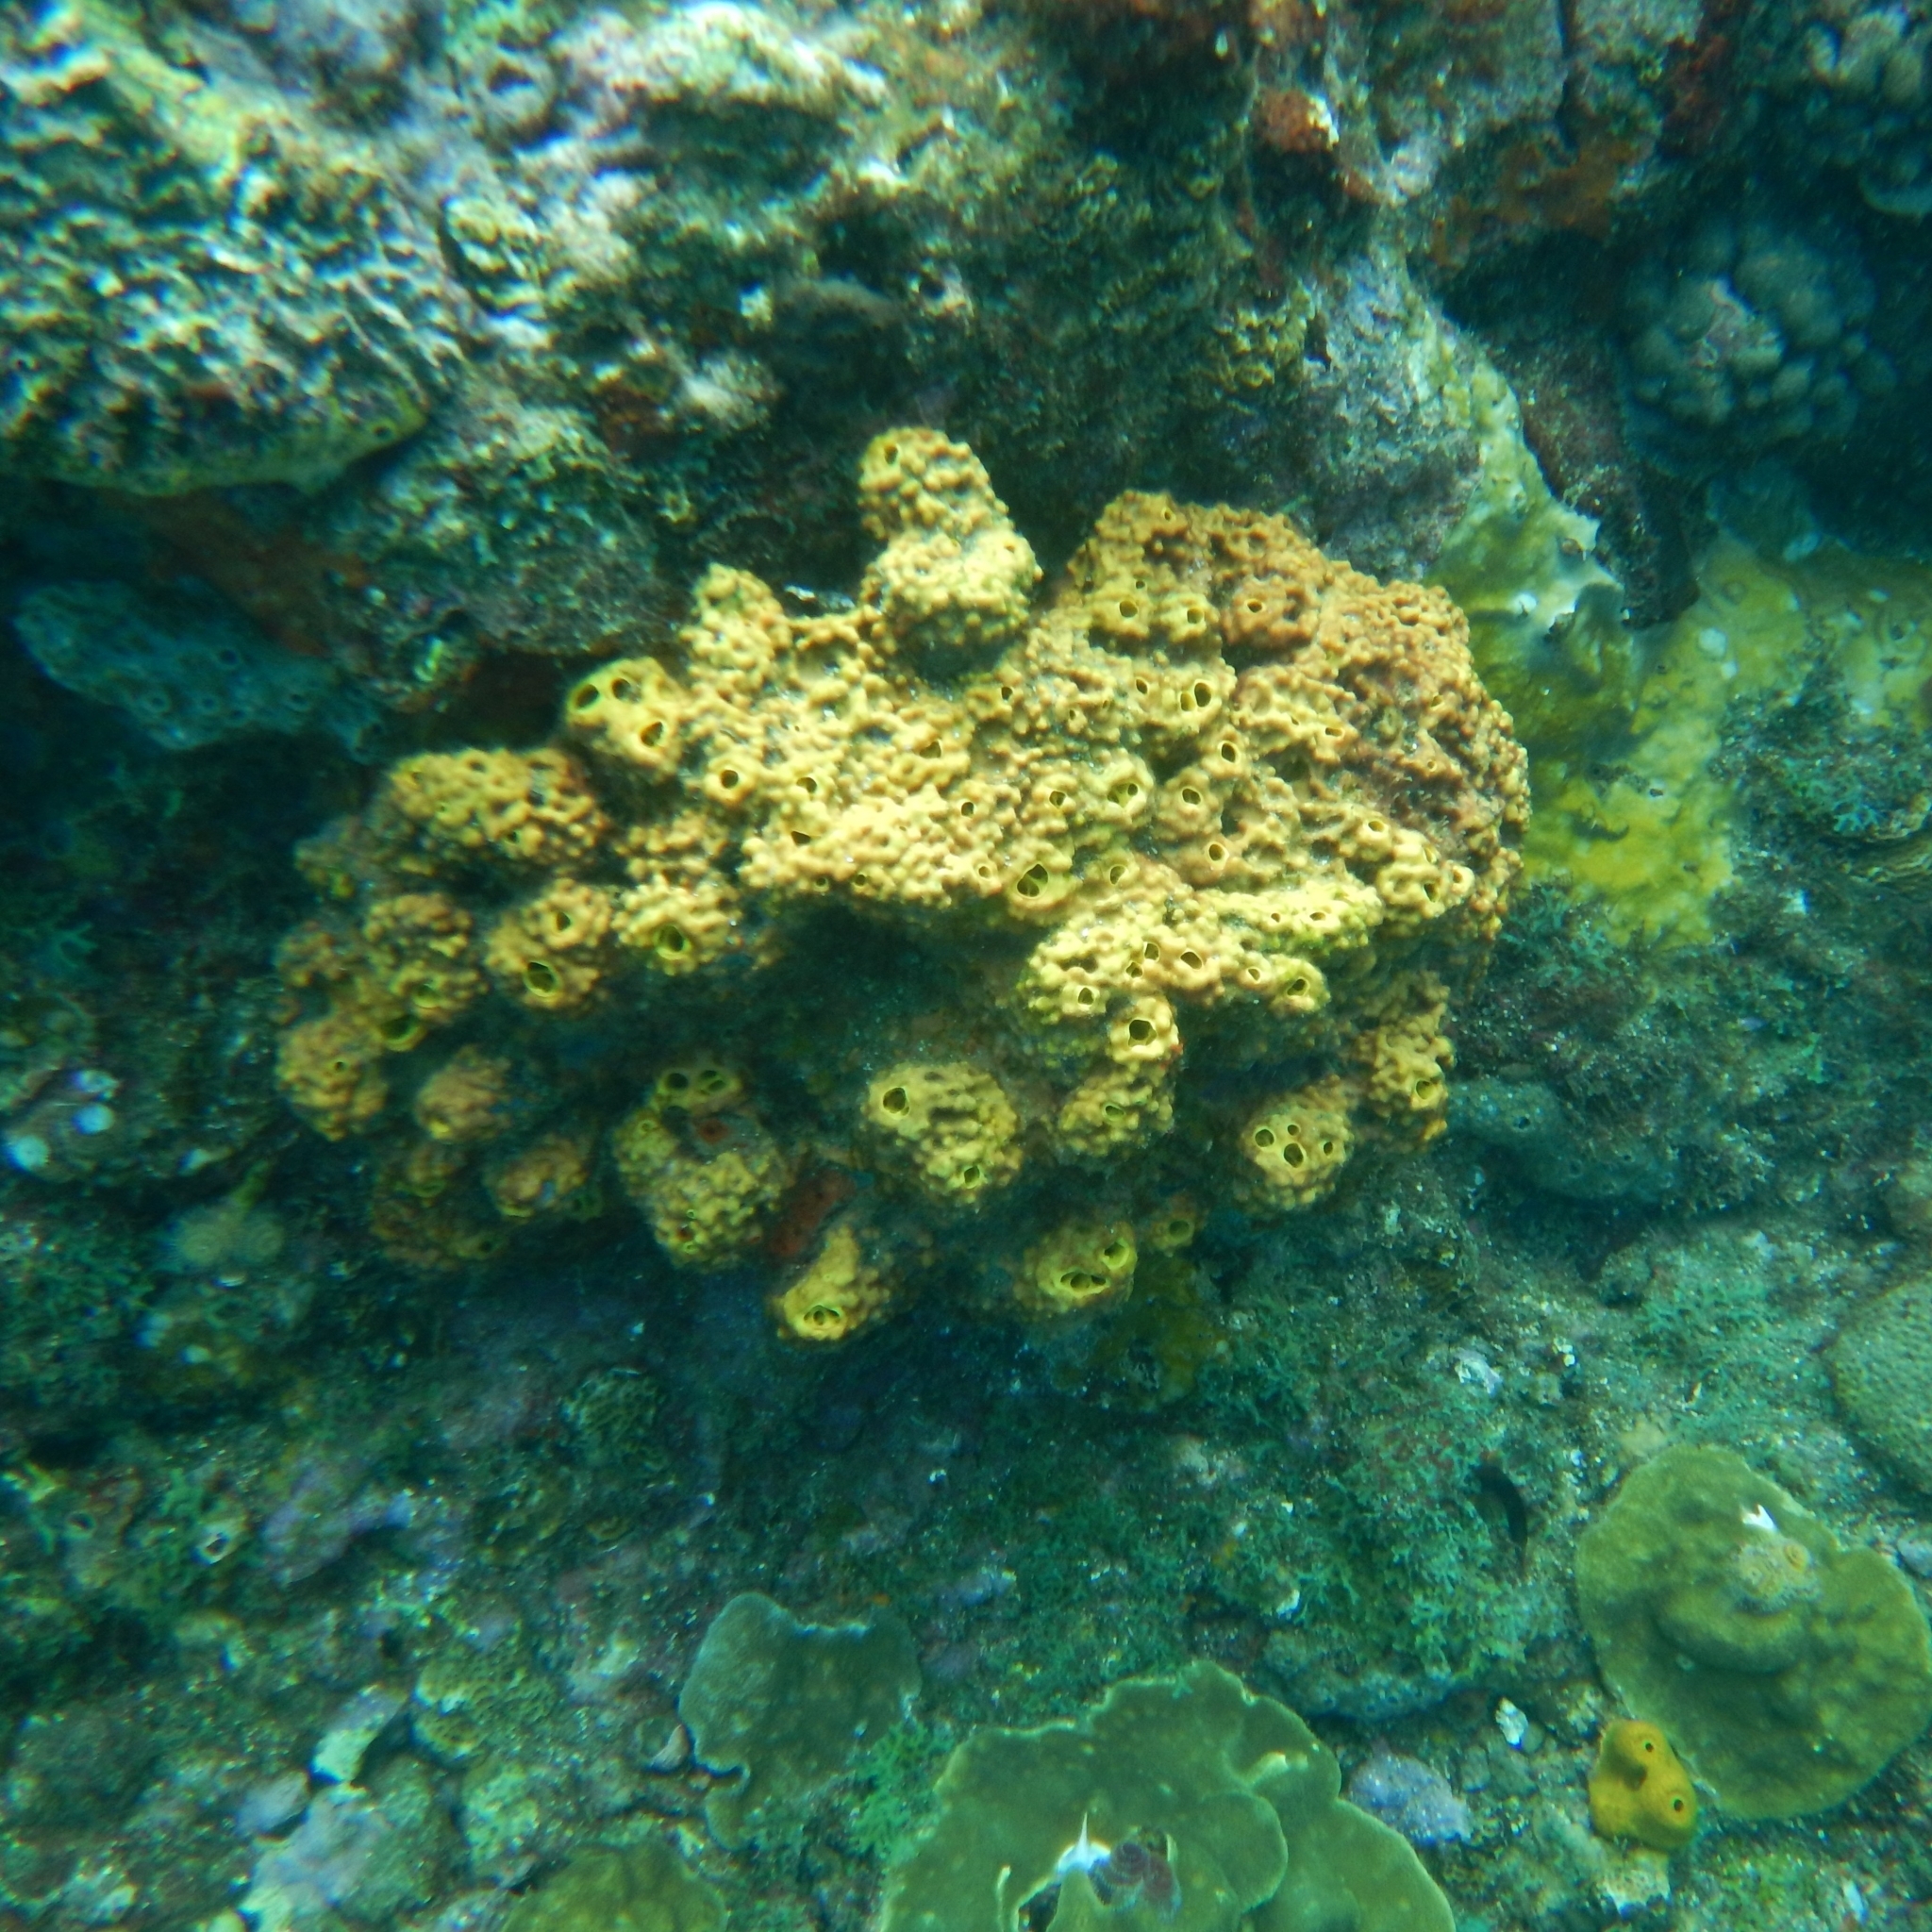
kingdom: Animalia
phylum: Porifera
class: Demospongiae
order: Verongiida
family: Aplysinidae
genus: Aiolochroia
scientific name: Aiolochroia crassa
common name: Branching tube sponge
